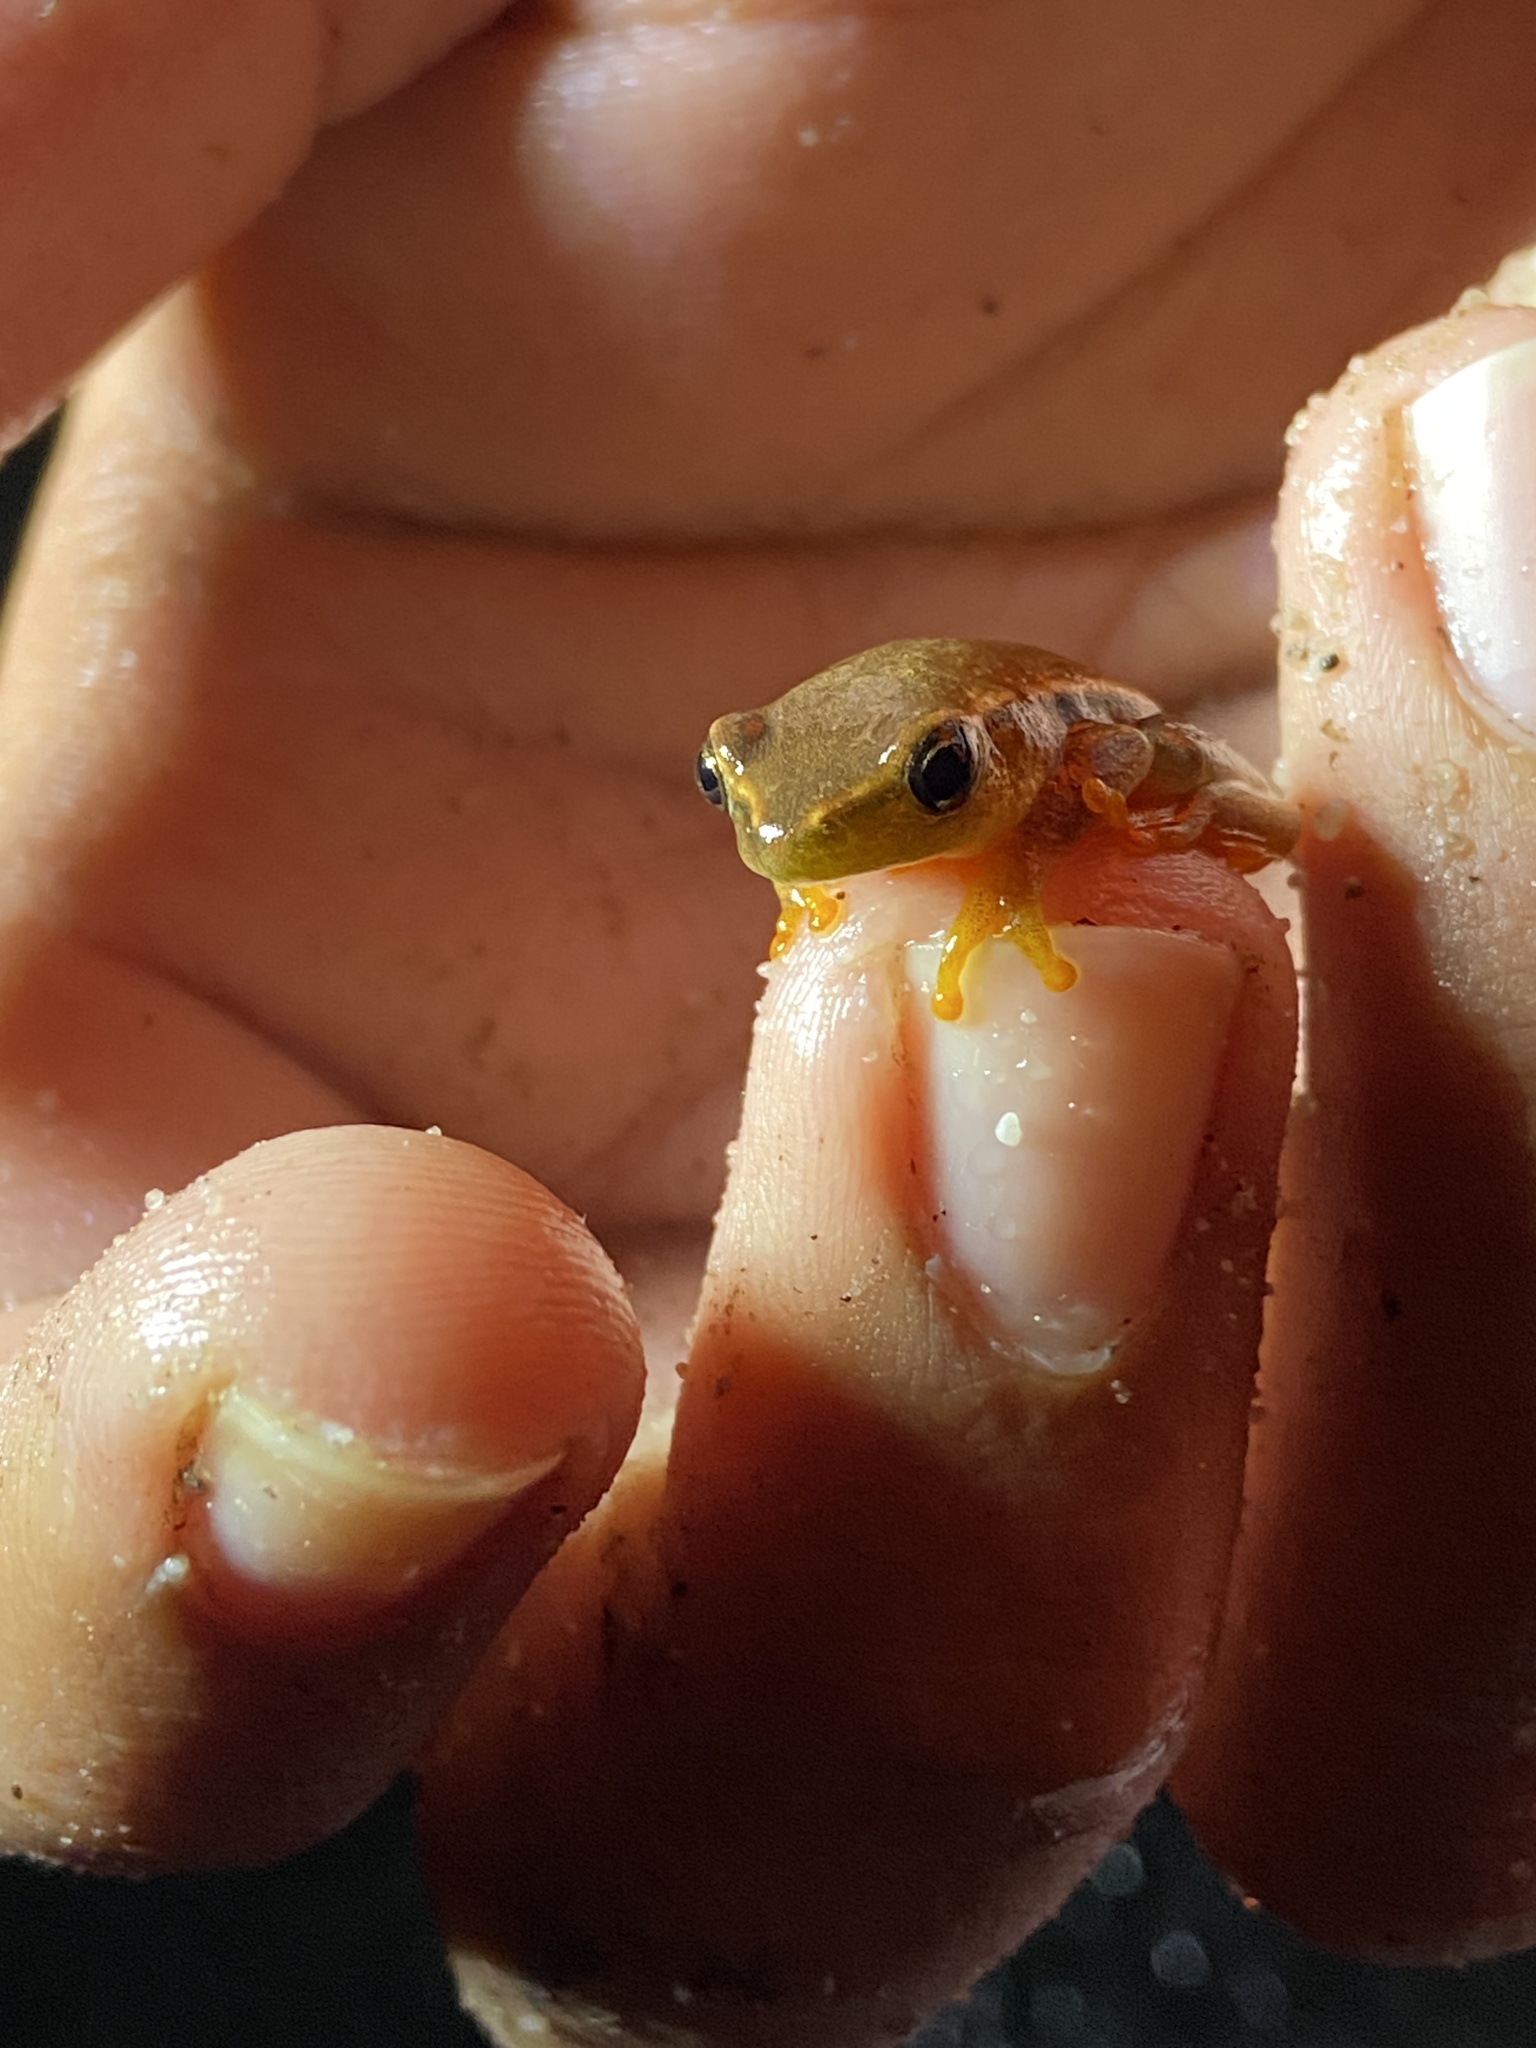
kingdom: Animalia
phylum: Chordata
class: Amphibia
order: Anura
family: Hyperoliidae
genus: Hyperolius
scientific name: Hyperolius horstockii
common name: Arum lily frog
